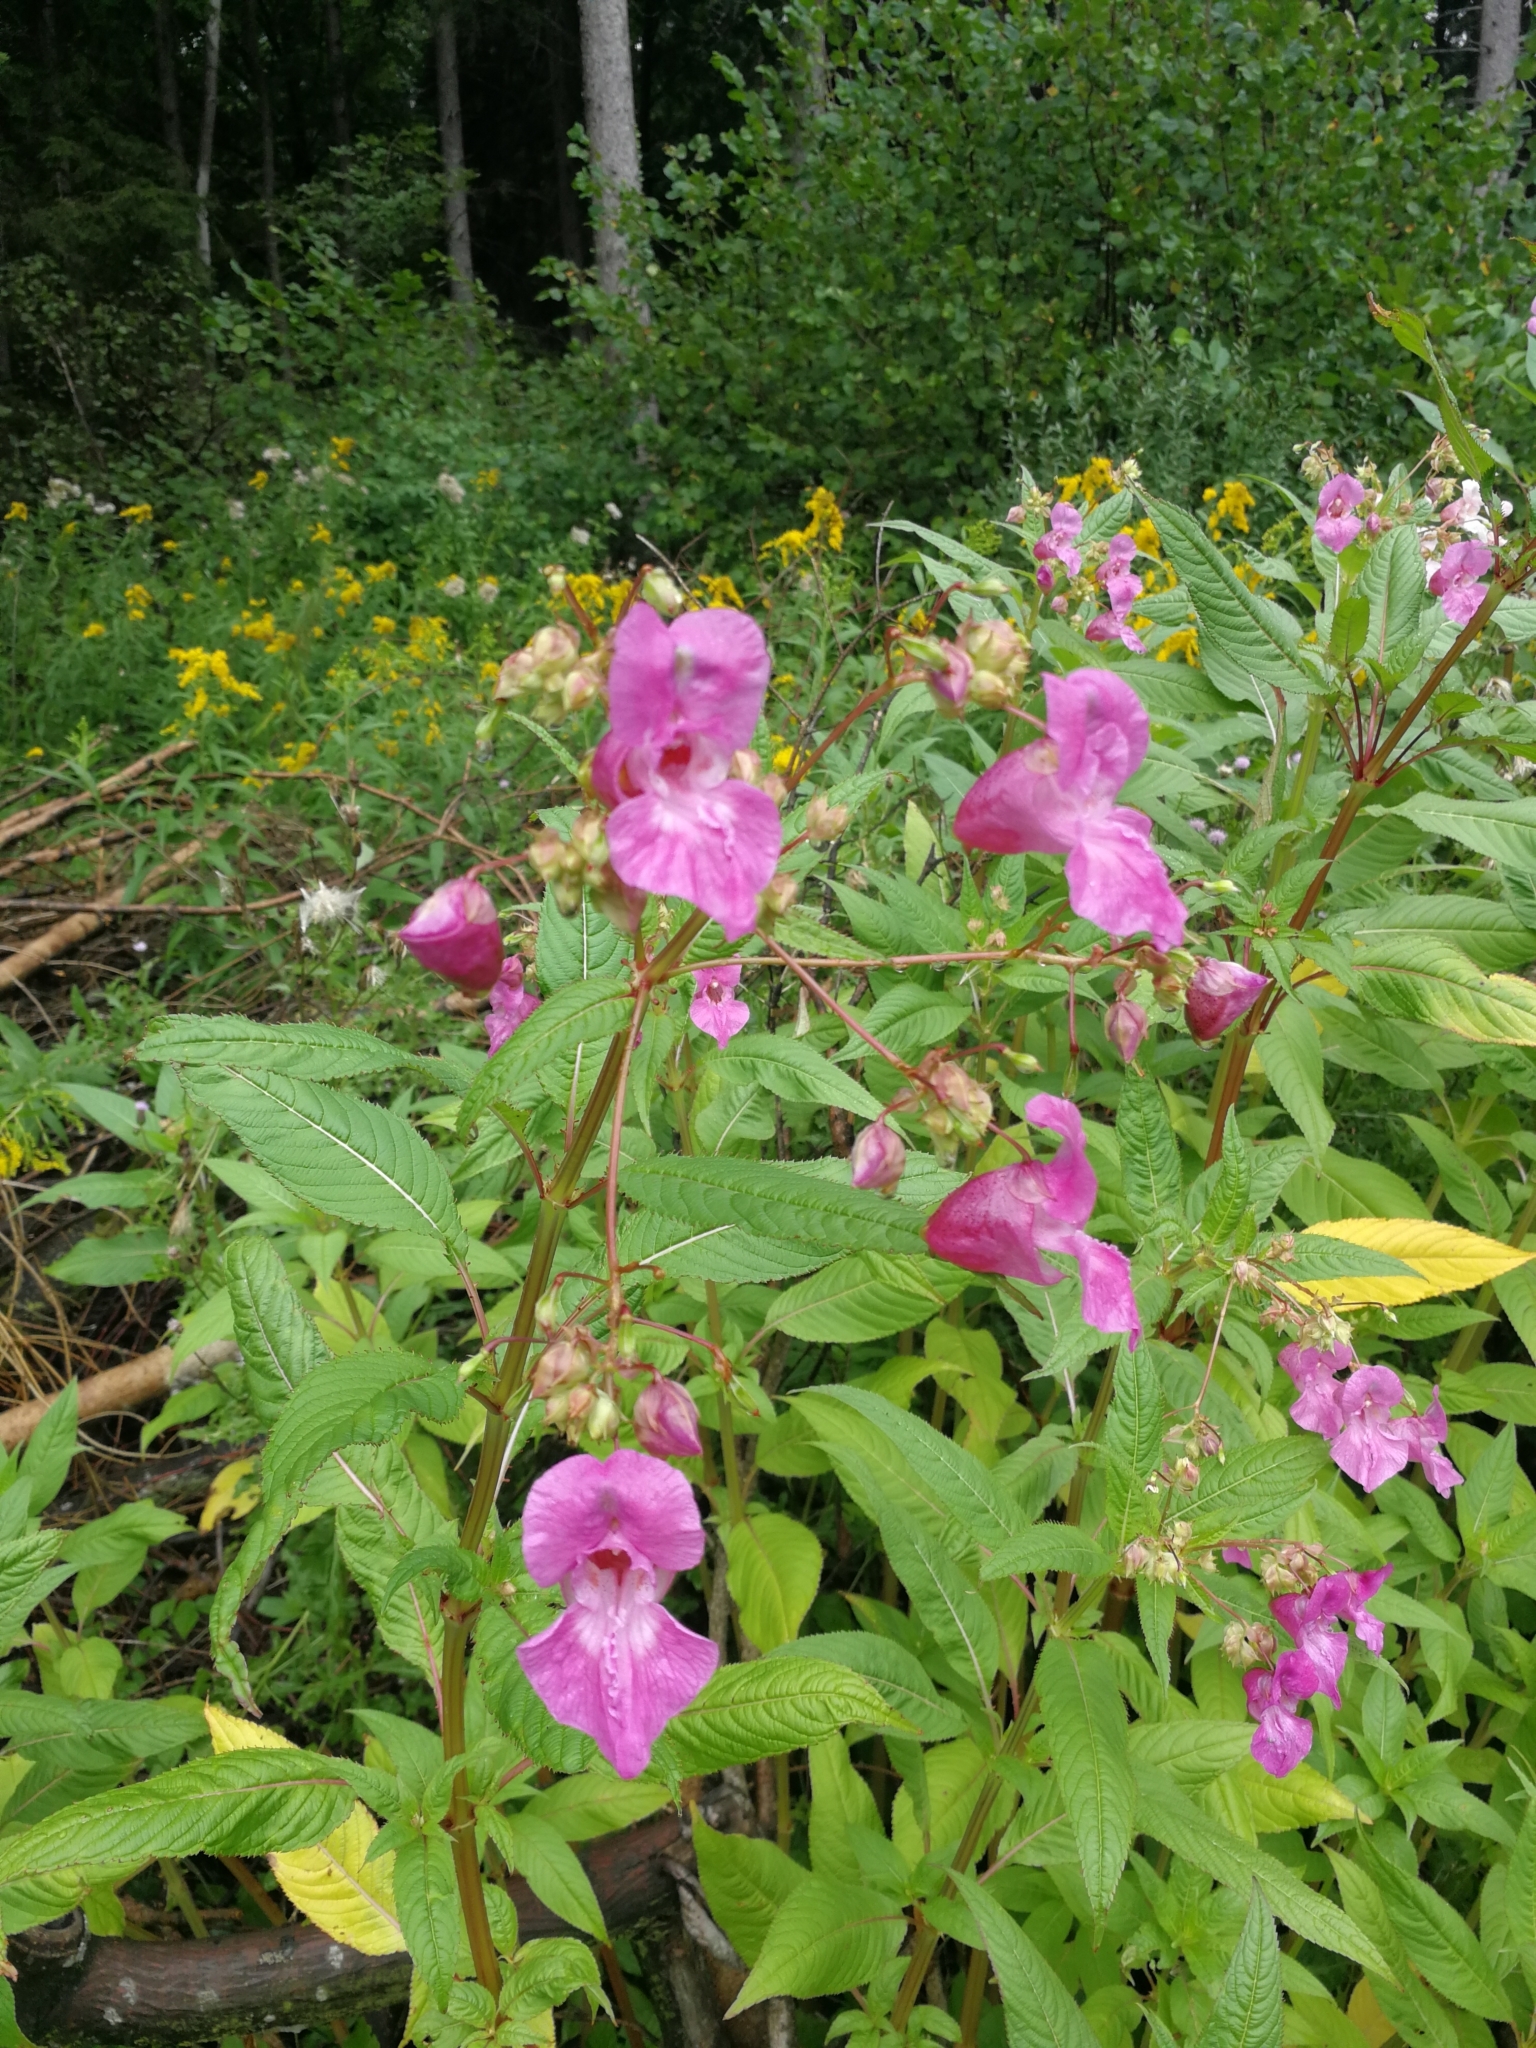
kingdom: Plantae
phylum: Tracheophyta
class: Magnoliopsida
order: Ericales
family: Balsaminaceae
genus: Impatiens
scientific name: Impatiens glandulifera
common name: Himalayan balsam
